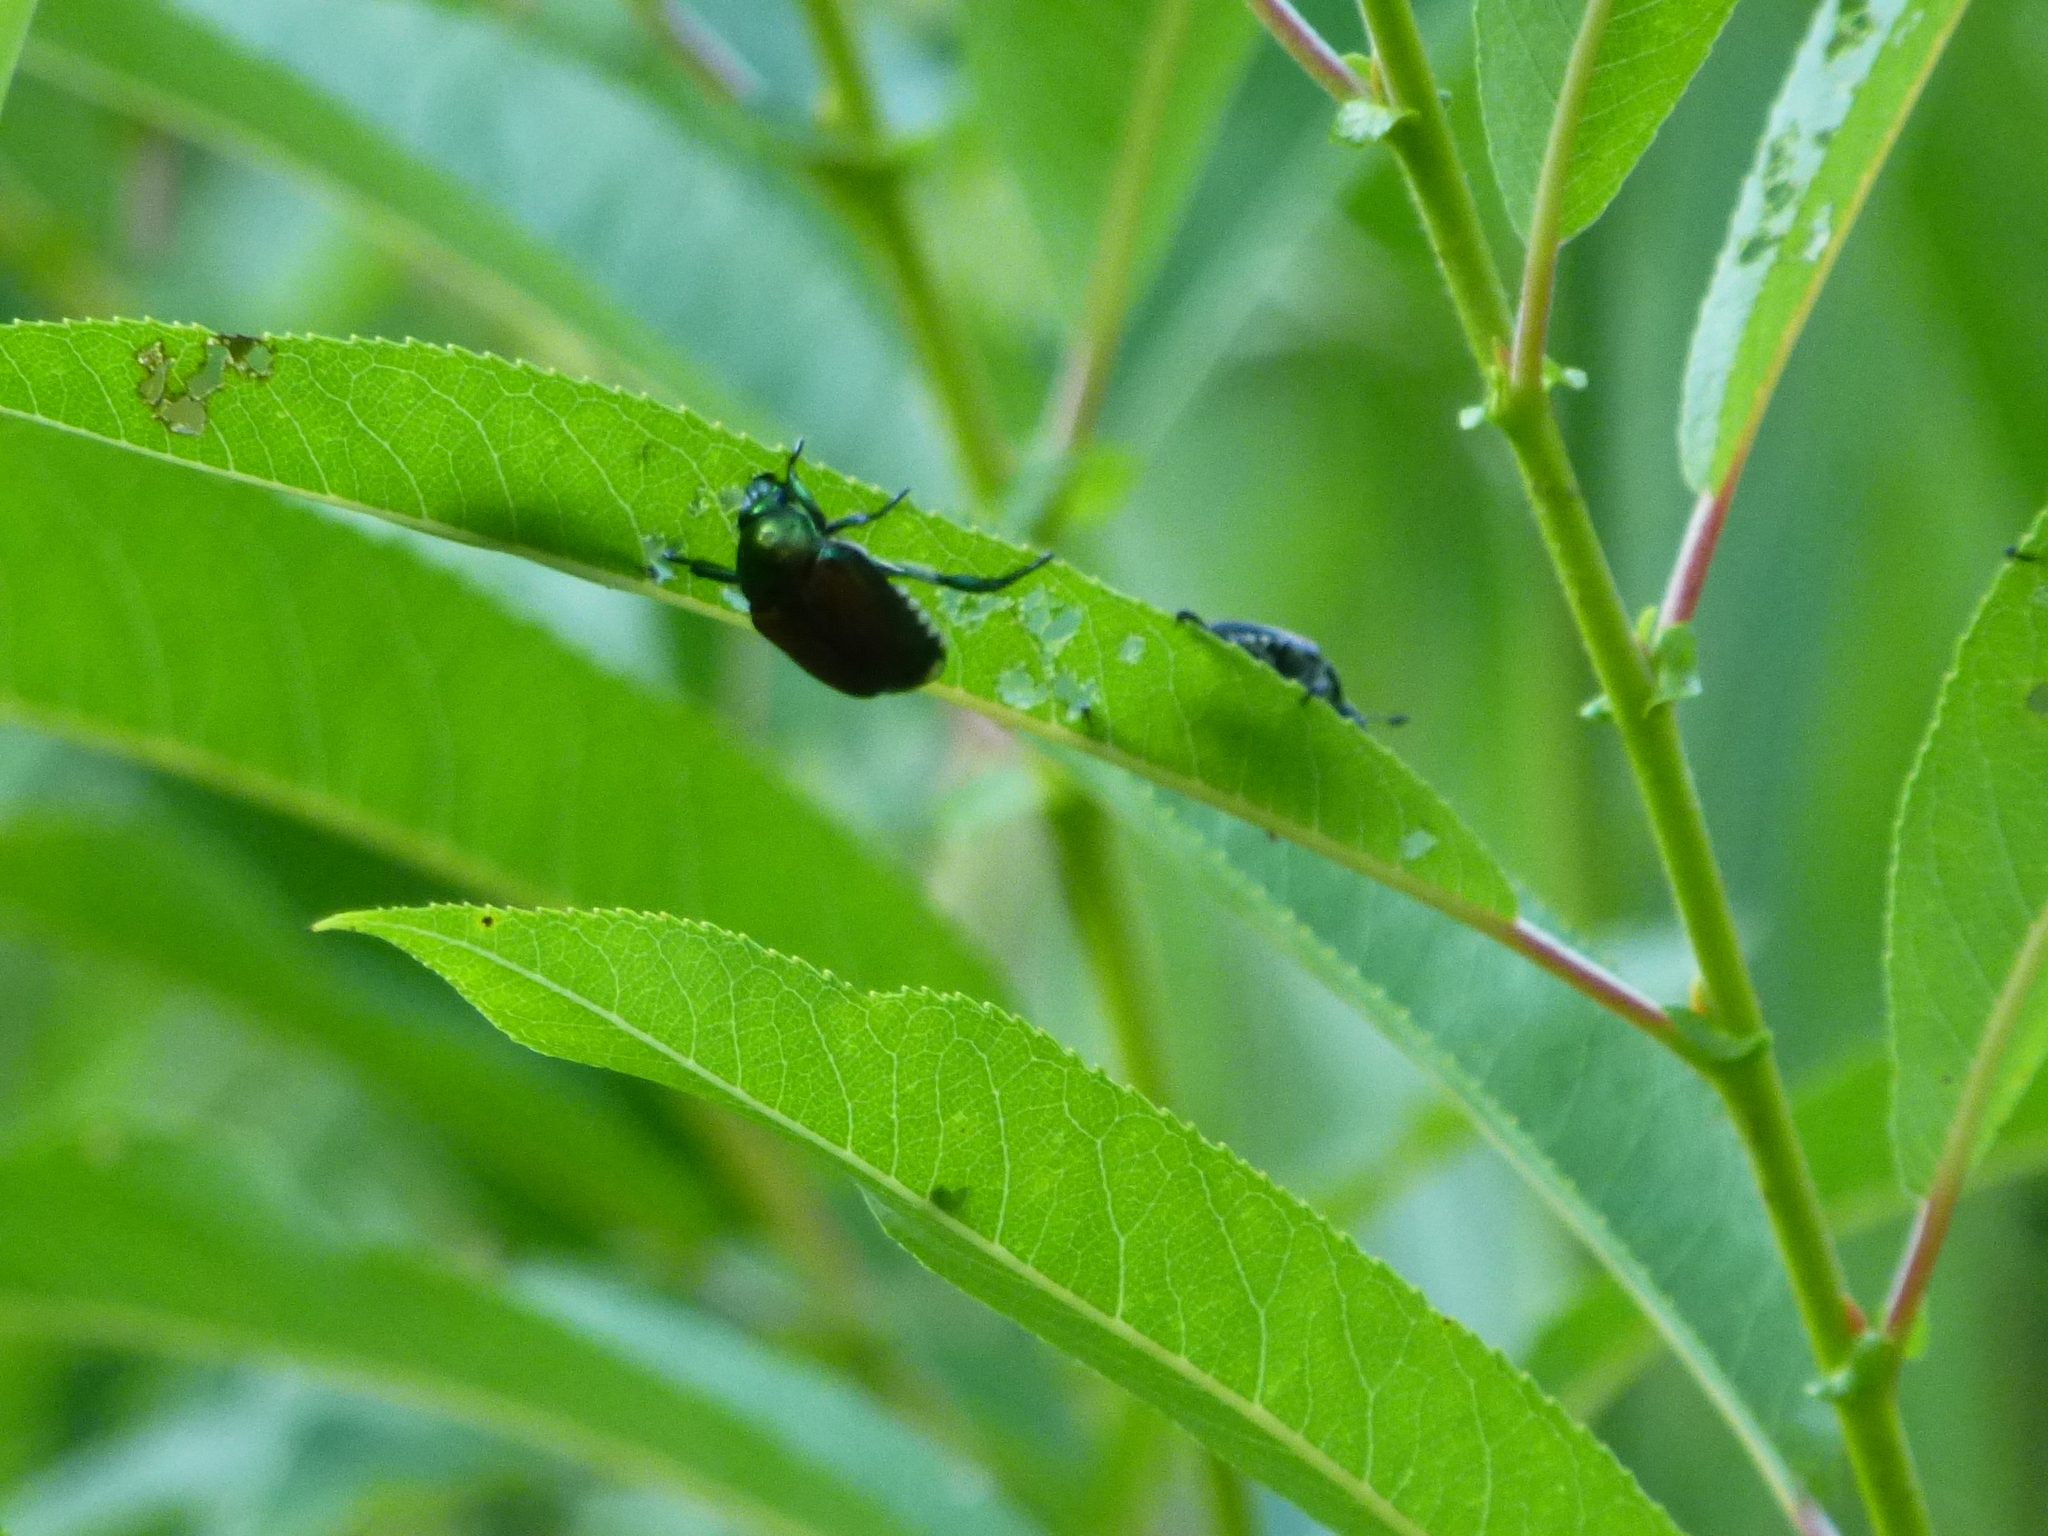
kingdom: Animalia
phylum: Arthropoda
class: Insecta
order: Coleoptera
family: Scarabaeidae
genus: Popillia
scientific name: Popillia japonica
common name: Japanese beetle
